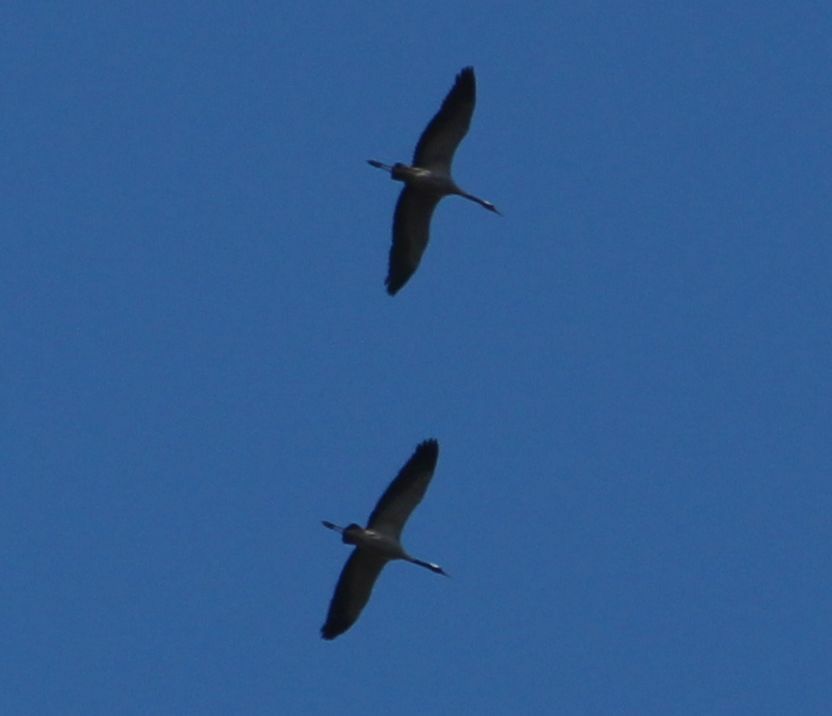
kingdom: Animalia
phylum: Chordata
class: Aves
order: Gruiformes
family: Gruidae
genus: Grus
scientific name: Grus grus
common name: Common crane
